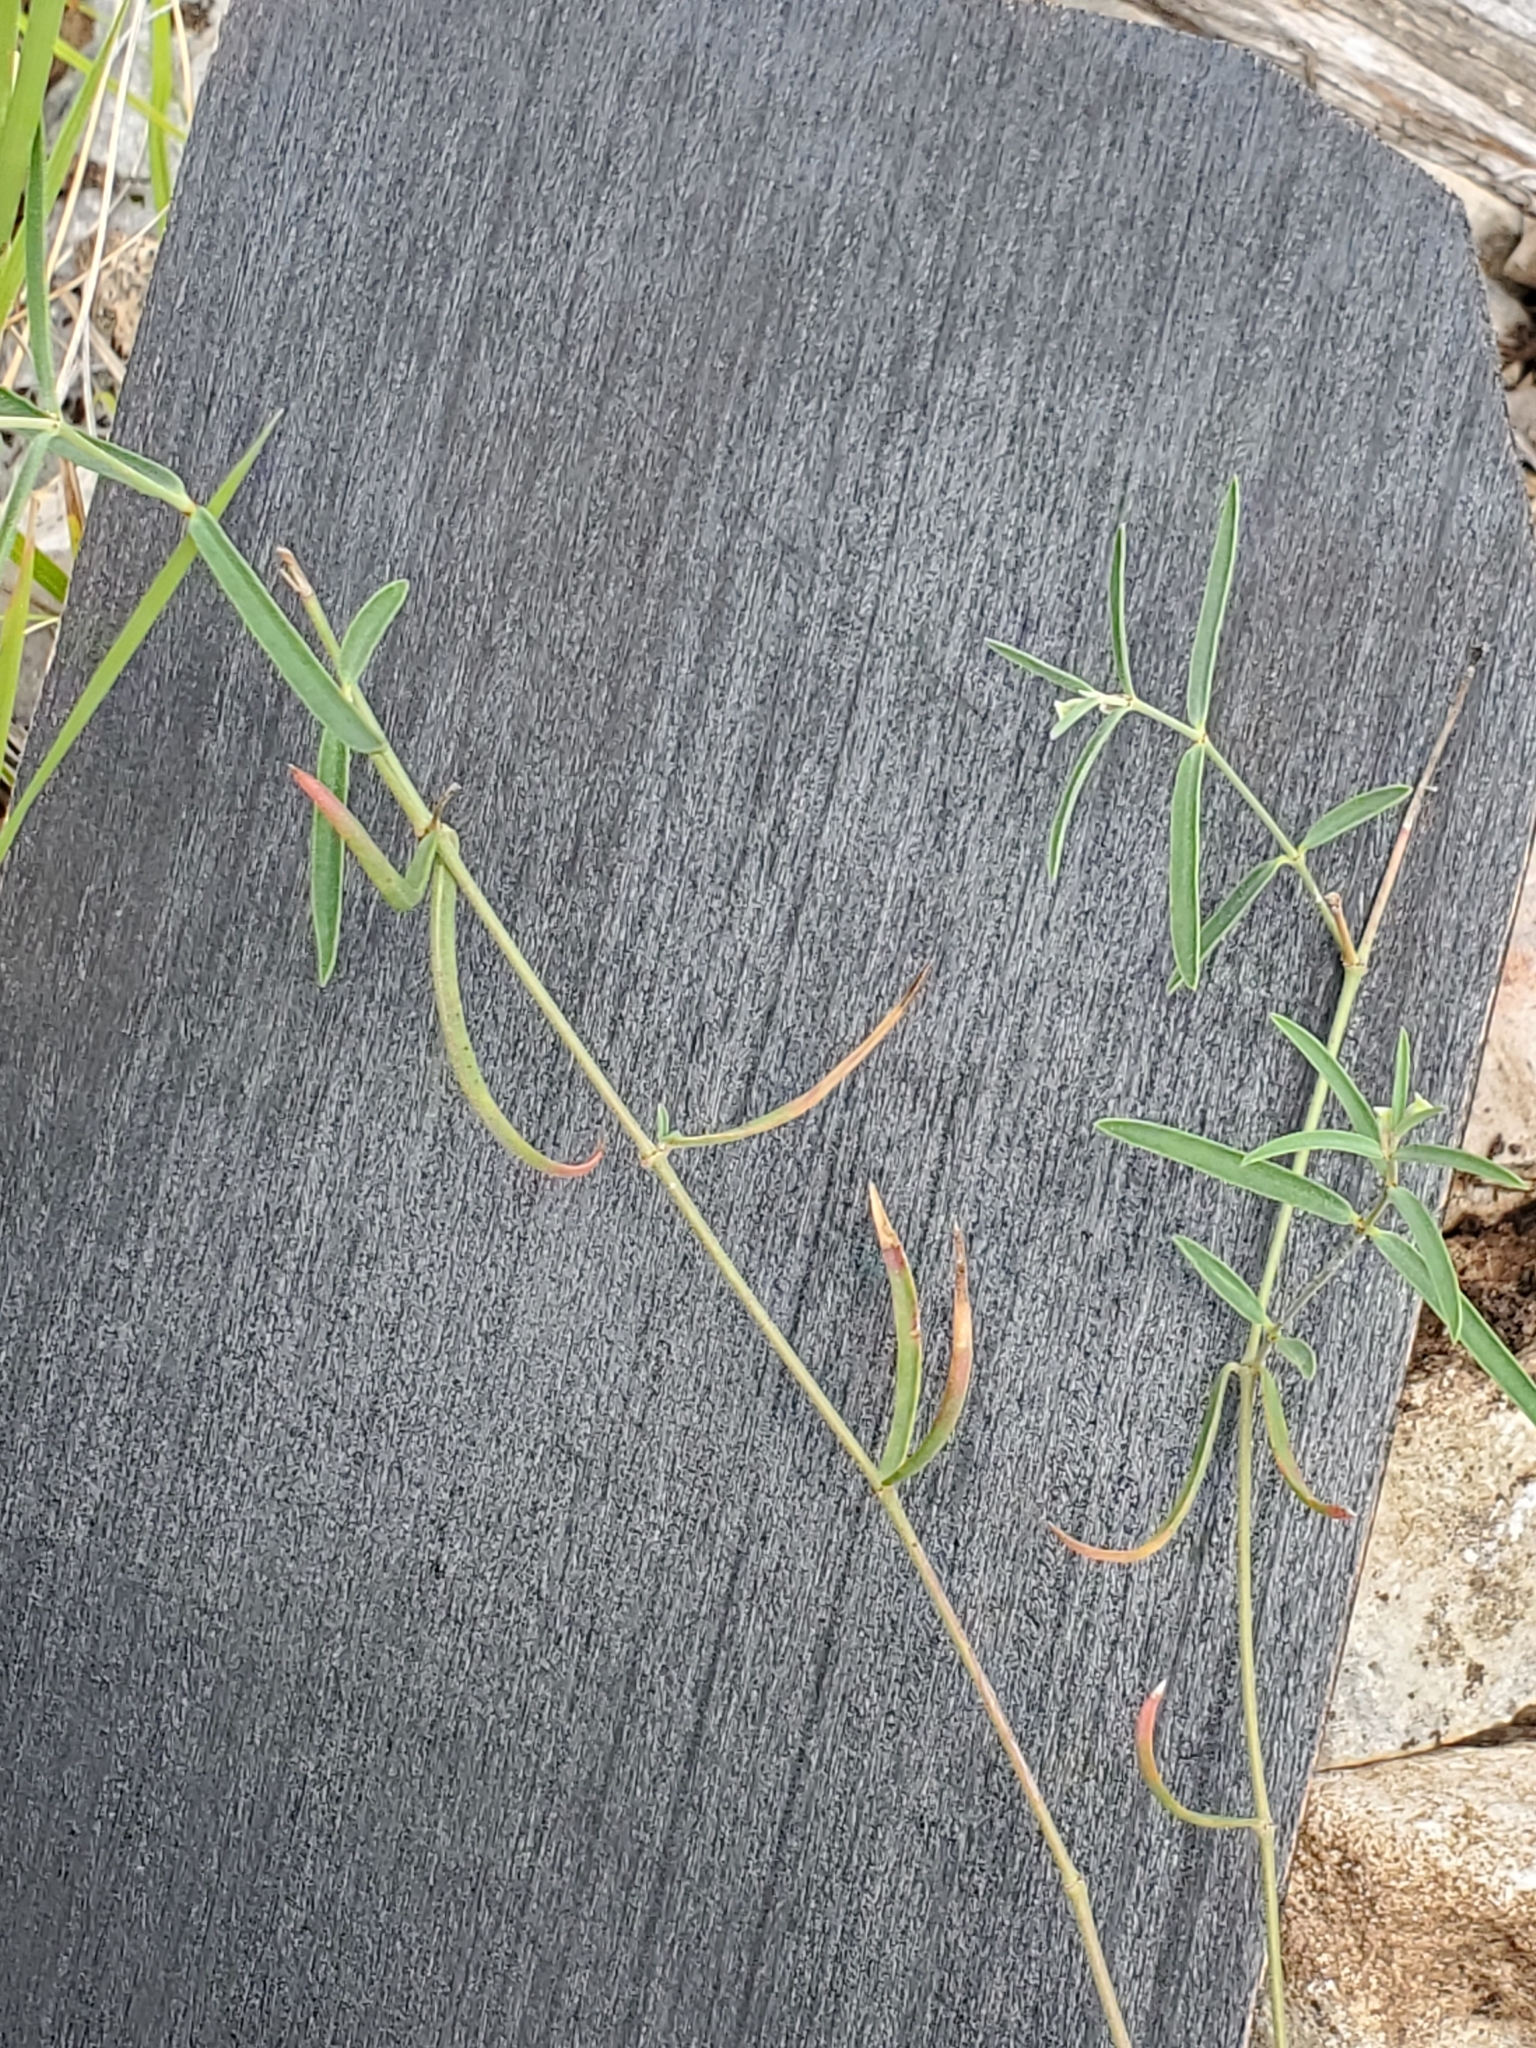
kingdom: Plantae
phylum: Tracheophyta
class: Magnoliopsida
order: Malpighiales
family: Euphorbiaceae
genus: Euphorbia
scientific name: Euphorbia angusta
